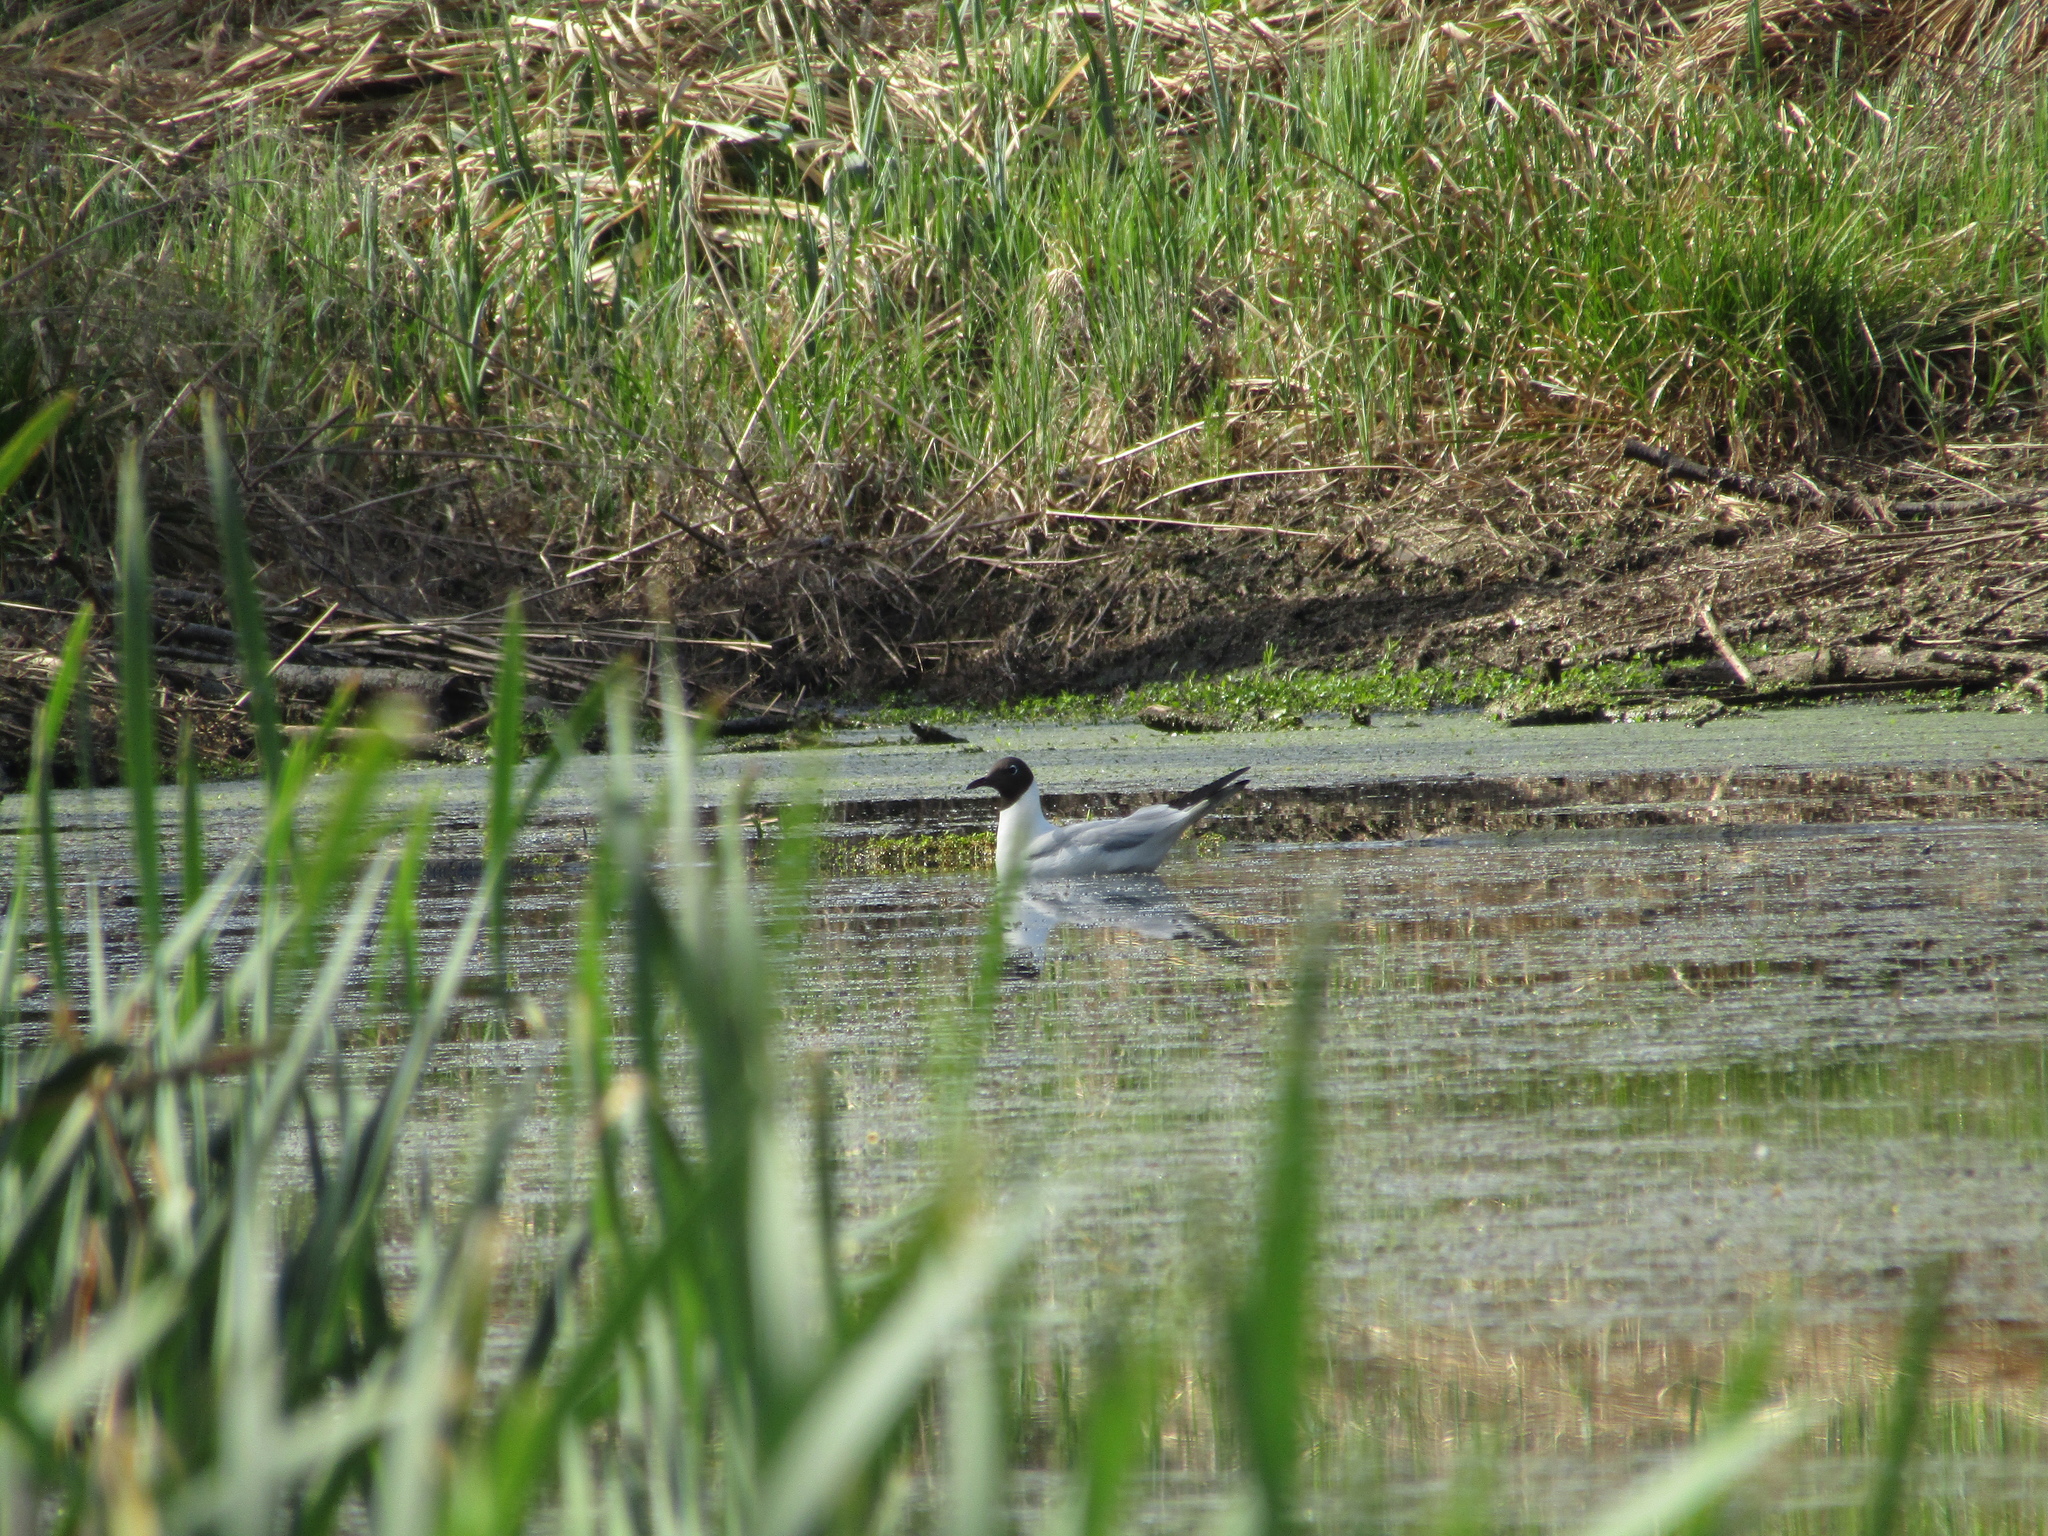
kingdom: Animalia
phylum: Chordata
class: Aves
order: Charadriiformes
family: Laridae
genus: Chroicocephalus
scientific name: Chroicocephalus ridibundus
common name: Black-headed gull
